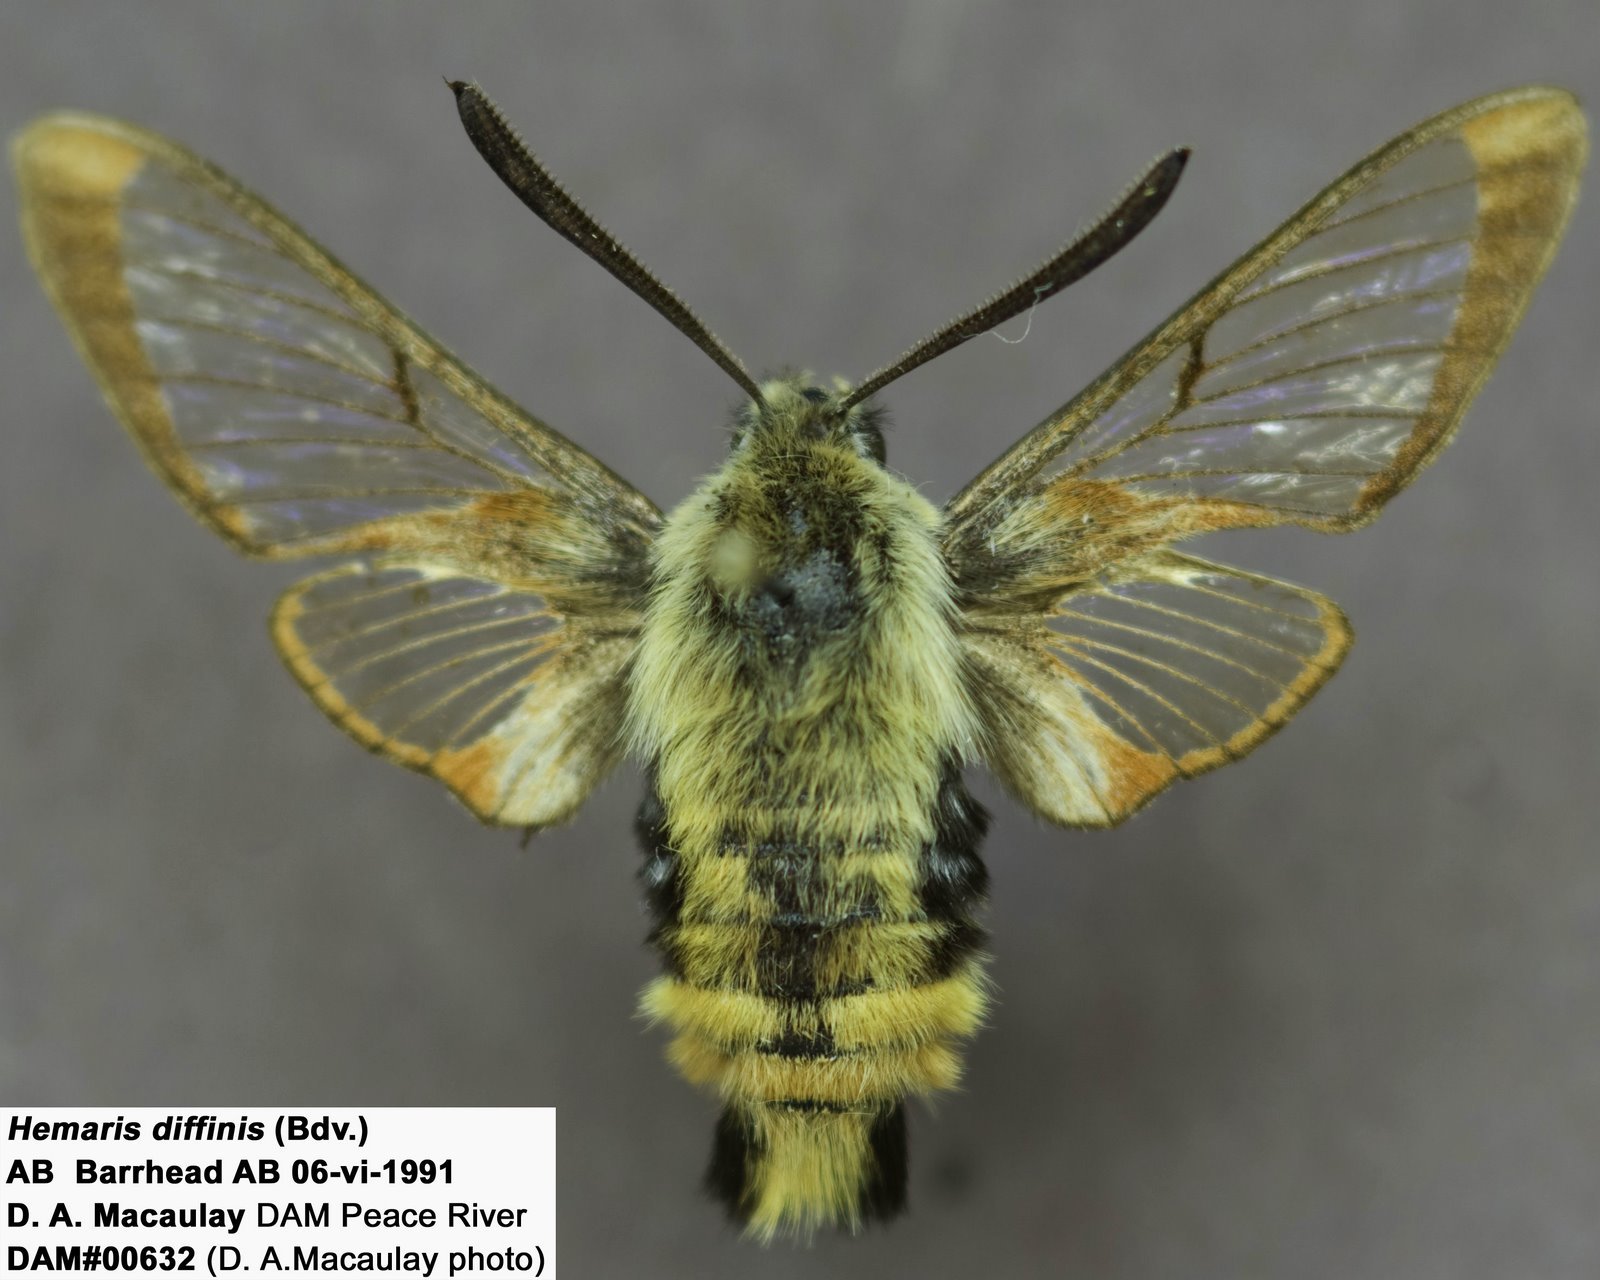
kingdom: Animalia
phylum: Arthropoda
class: Insecta
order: Lepidoptera
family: Sphingidae
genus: Hemaris
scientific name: Hemaris diffinis
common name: Bumblebee moth
